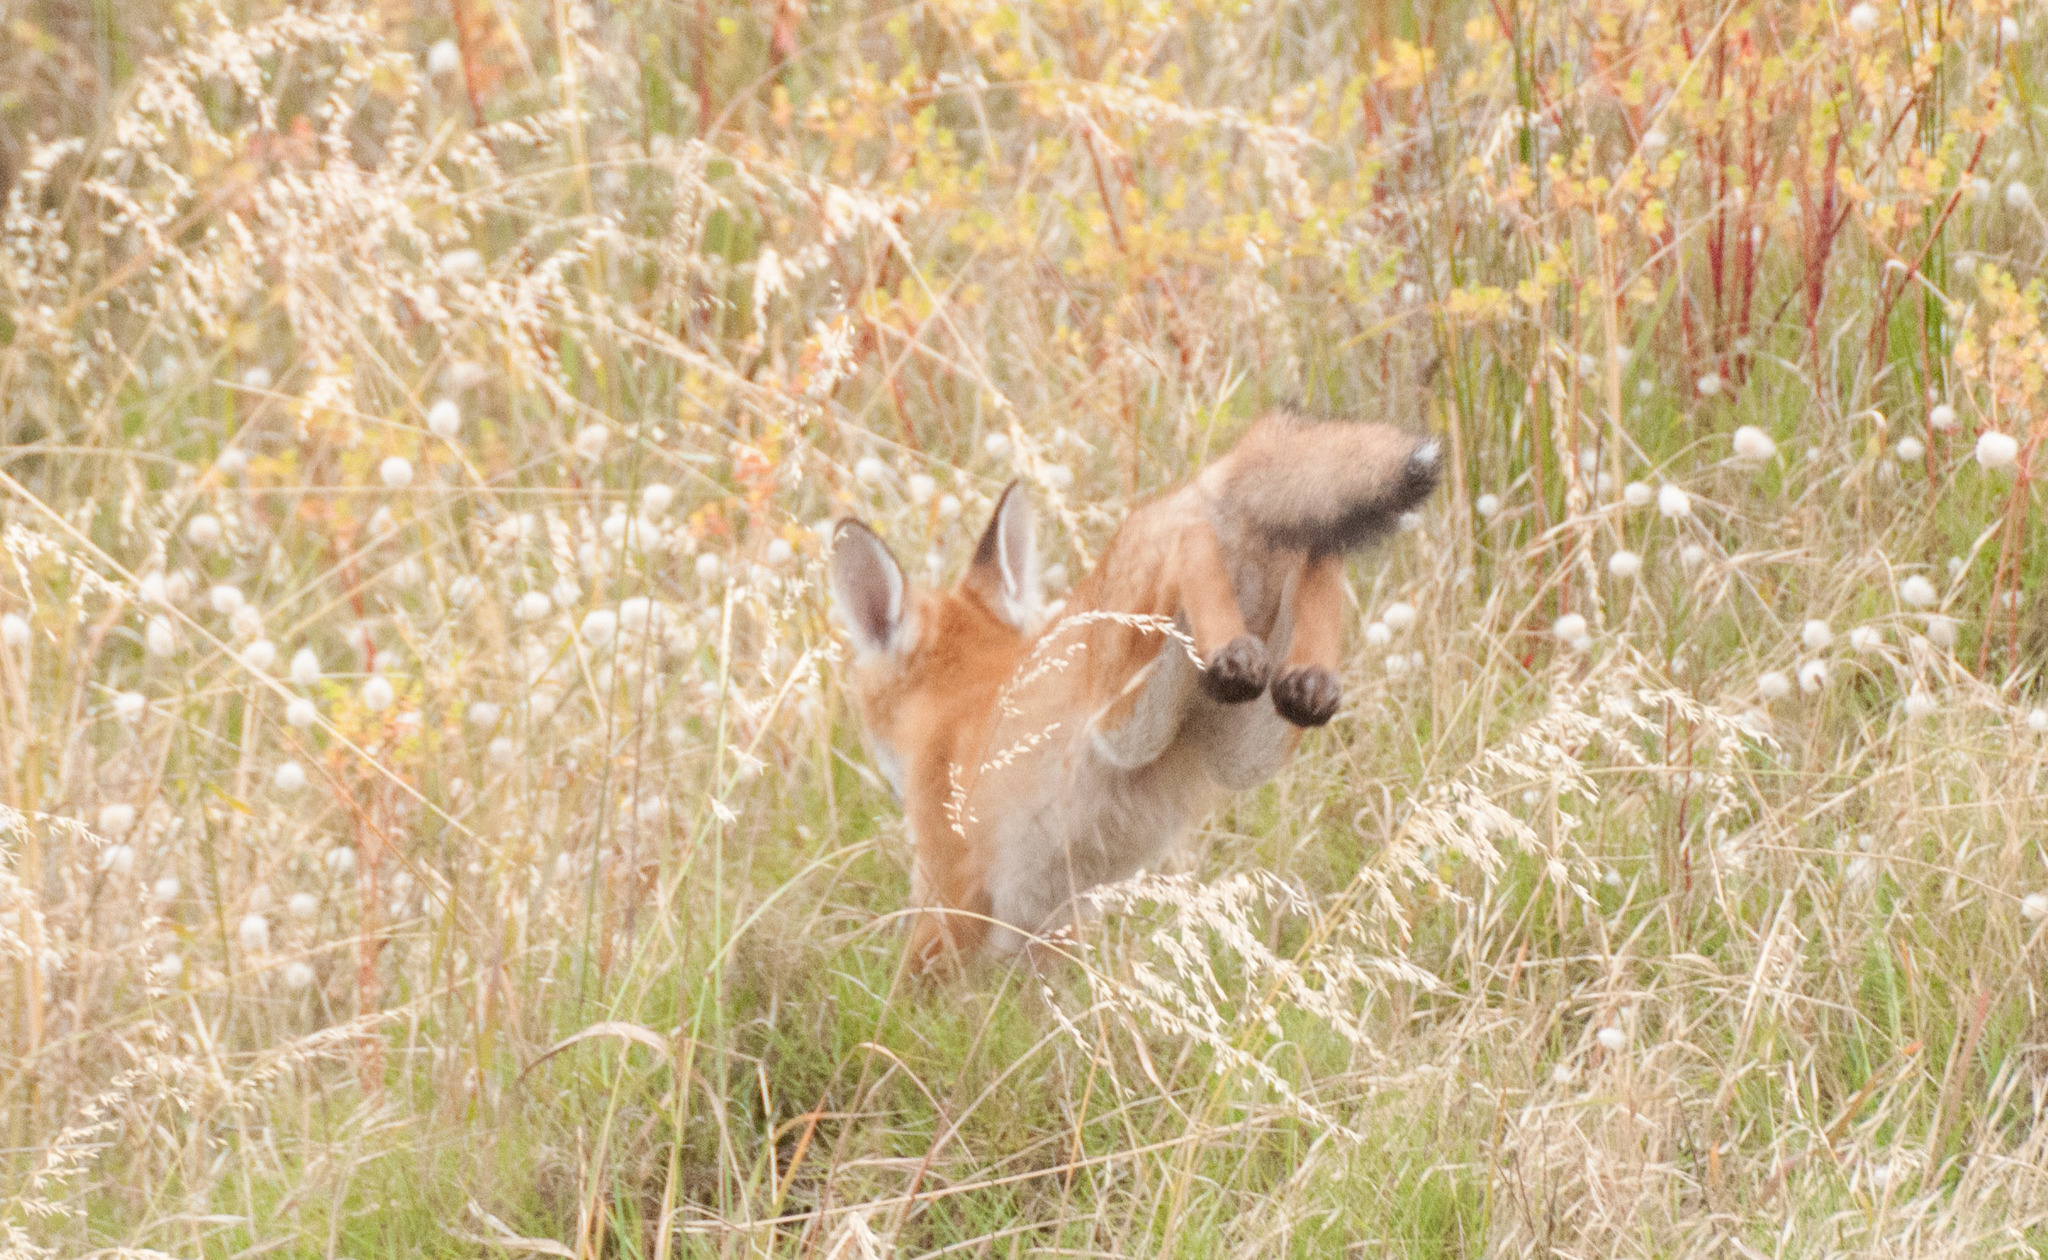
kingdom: Animalia
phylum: Chordata
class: Mammalia
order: Carnivora
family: Canidae
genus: Vulpes
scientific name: Vulpes vulpes
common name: Red fox
